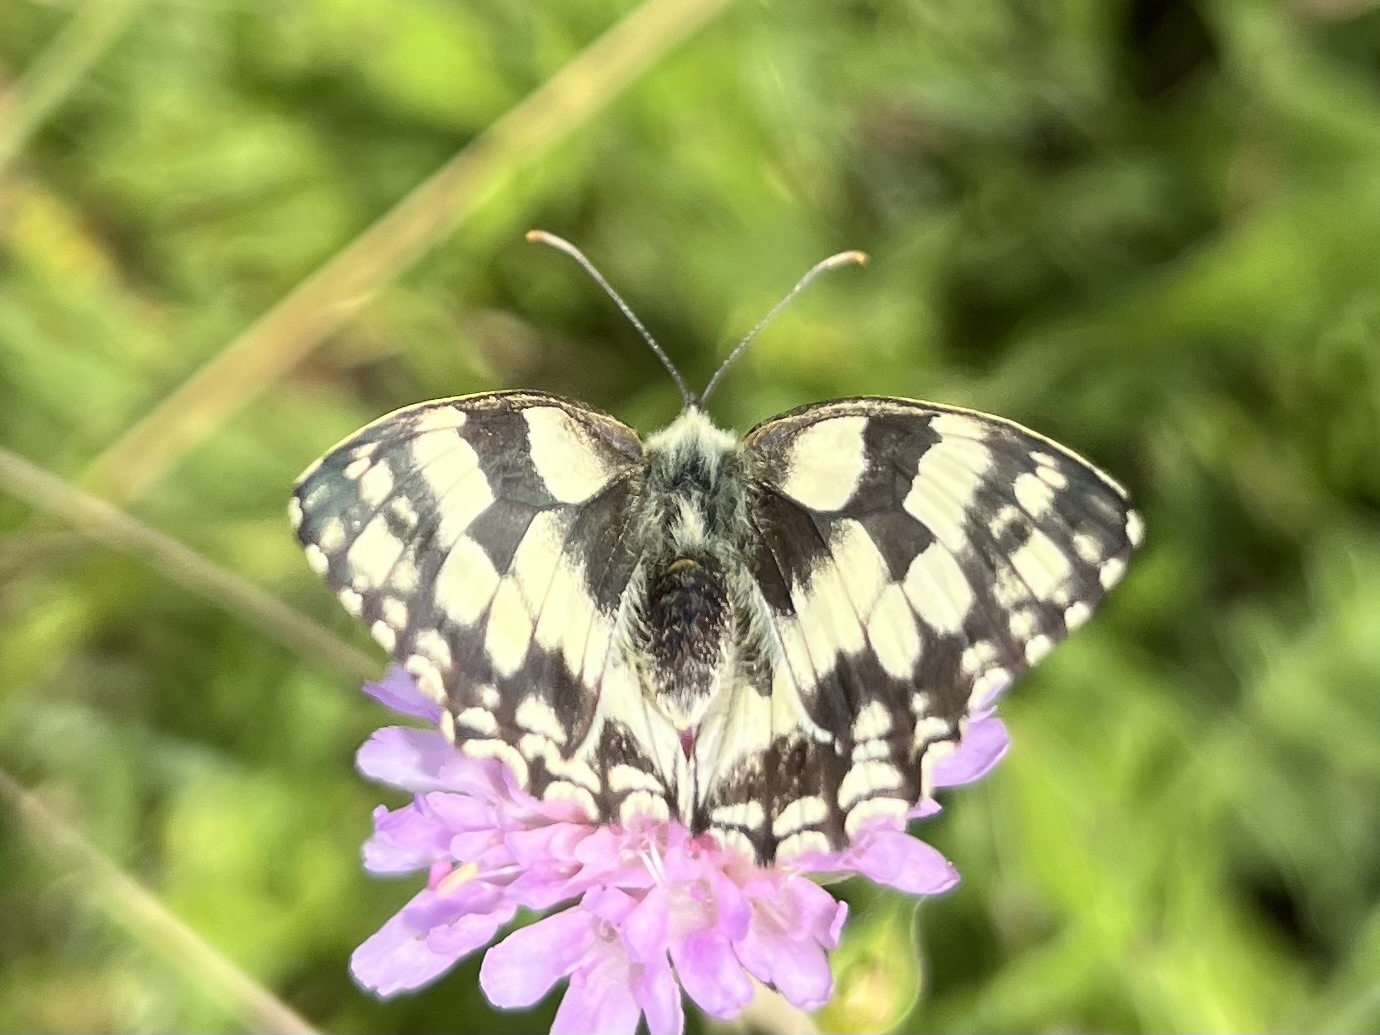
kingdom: Animalia
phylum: Arthropoda
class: Insecta
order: Lepidoptera
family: Nymphalidae
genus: Melanargia
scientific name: Melanargia galathea
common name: Marbled white
